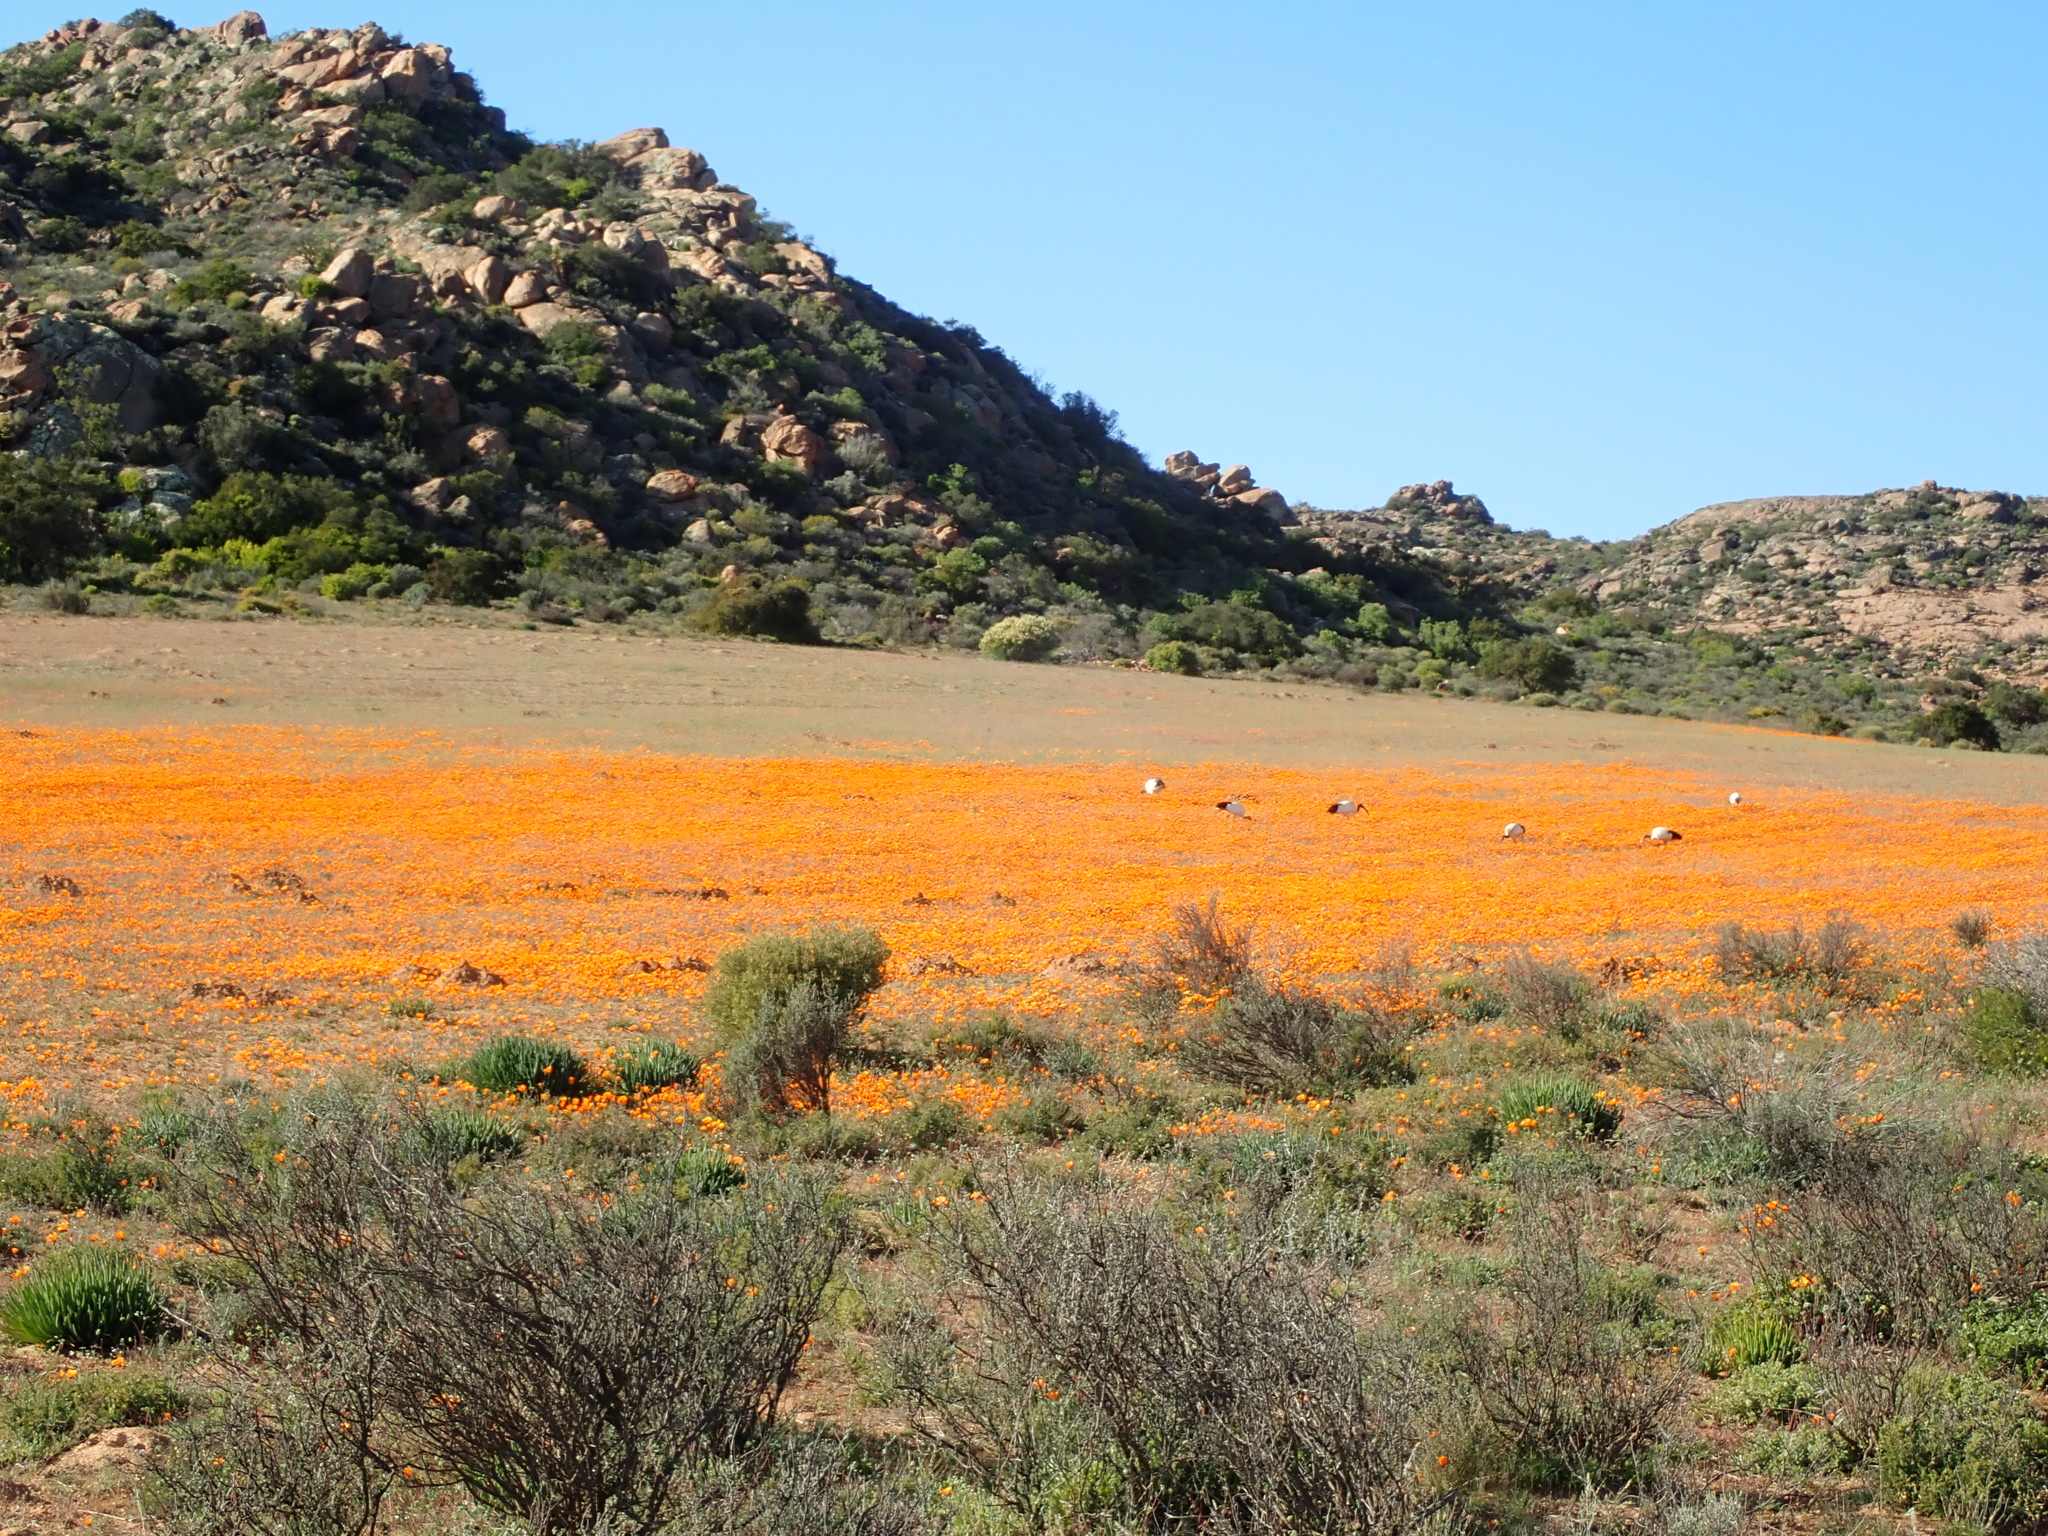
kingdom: Animalia
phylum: Chordata
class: Aves
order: Pelecaniformes
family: Threskiornithidae
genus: Threskiornis
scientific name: Threskiornis aethiopicus
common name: Sacred ibis
